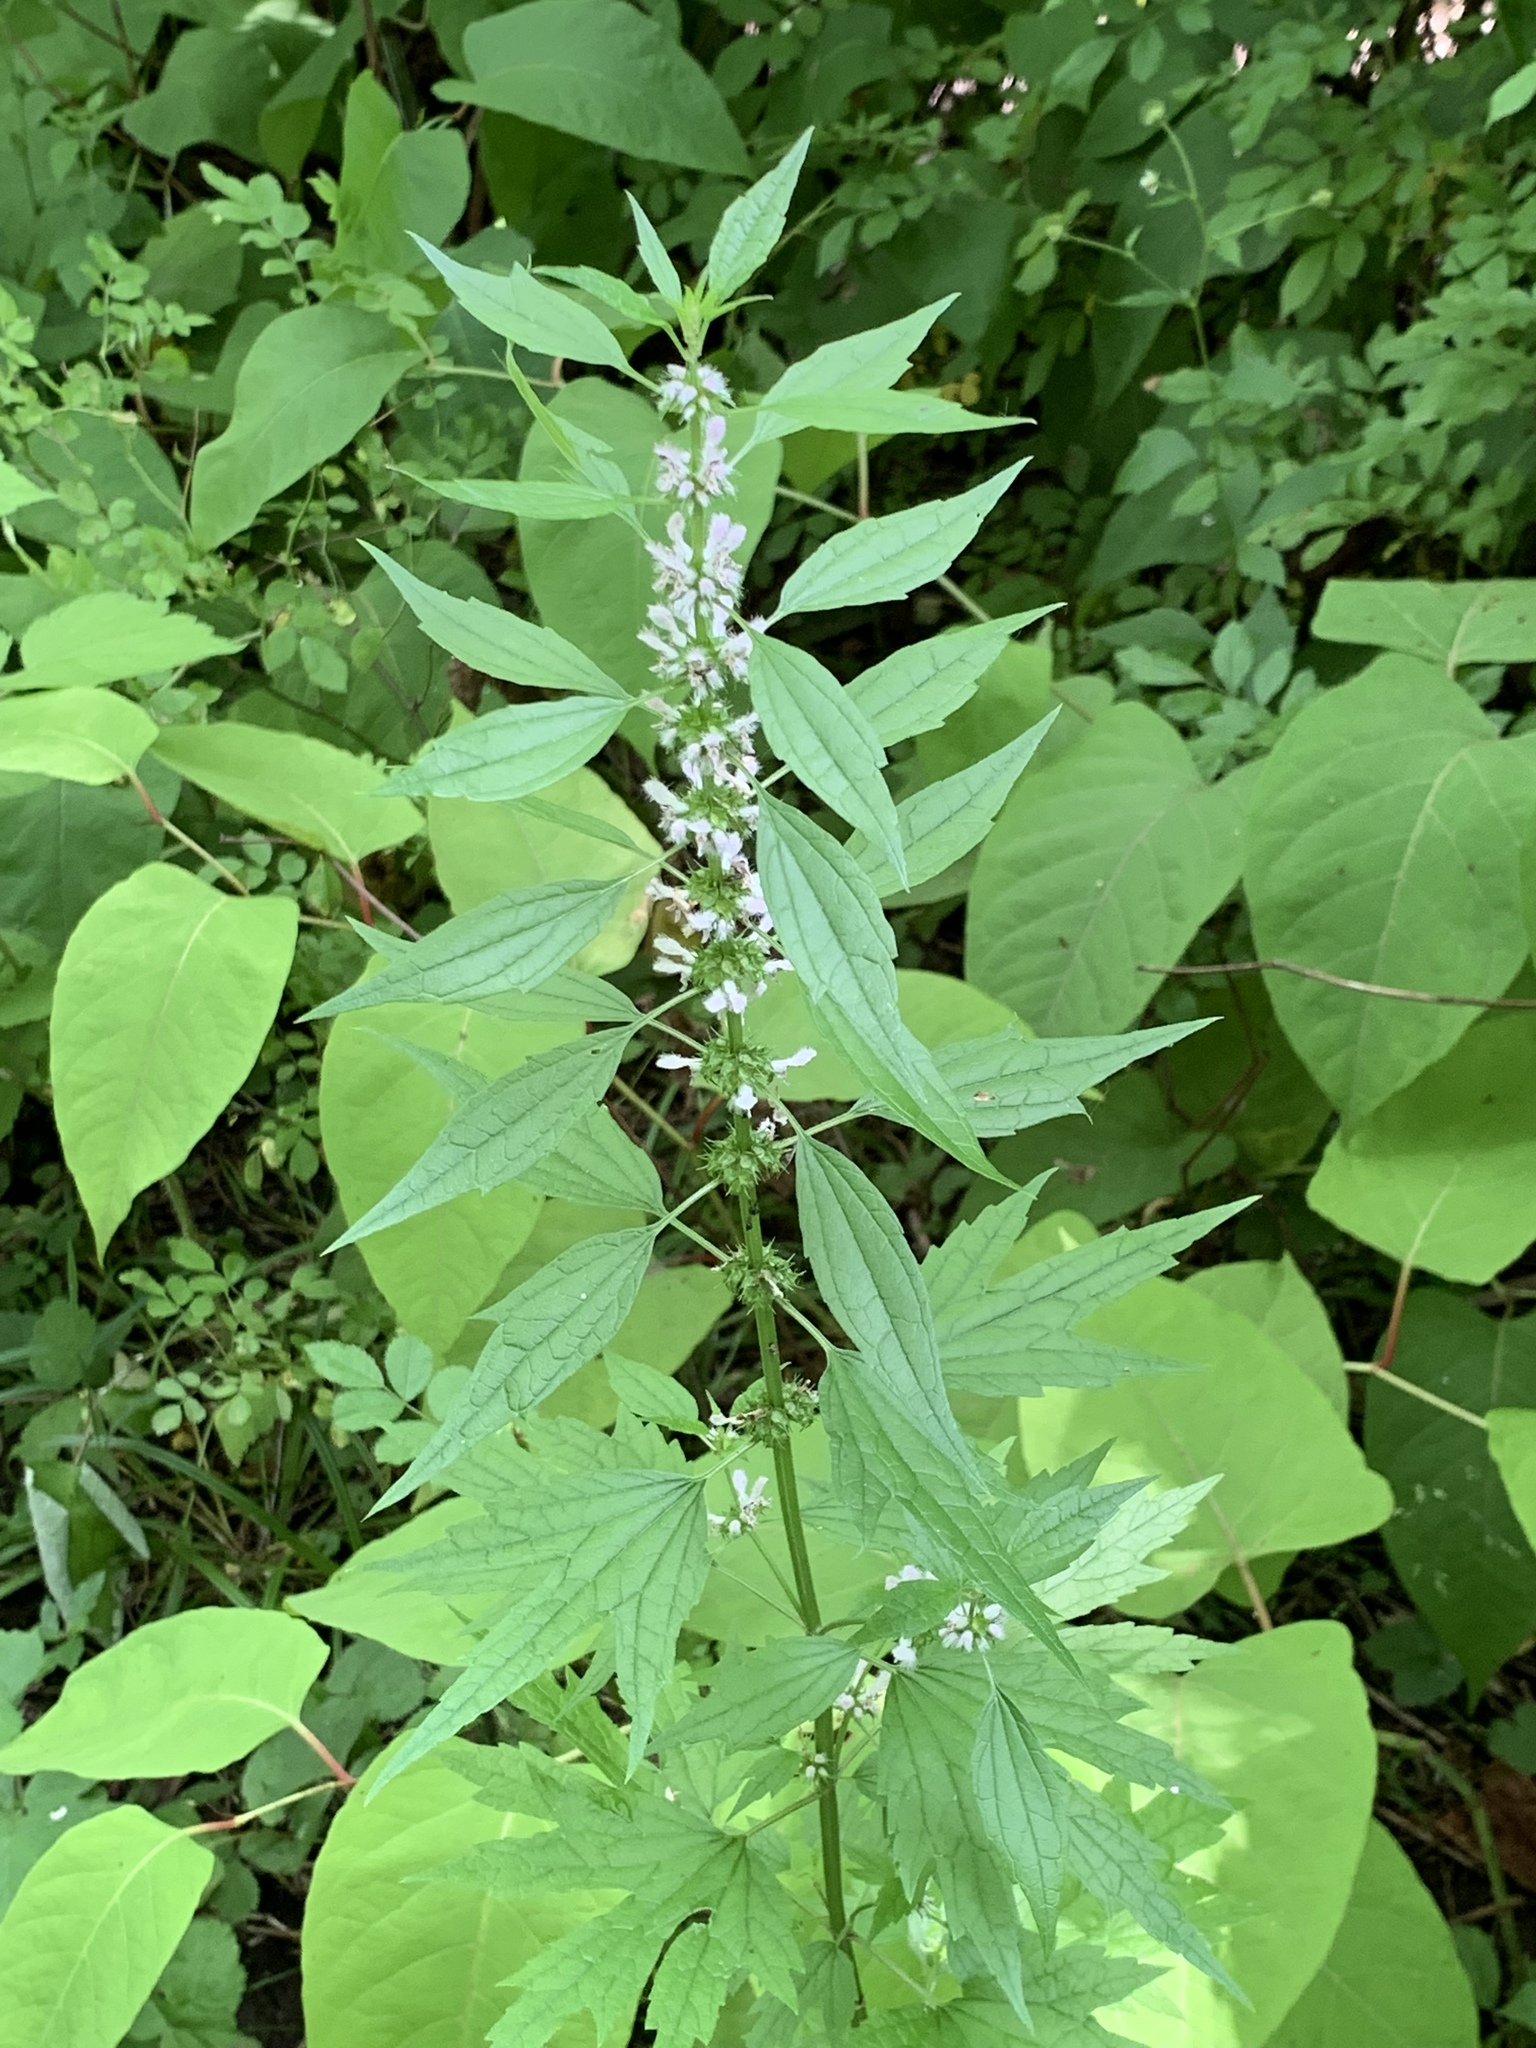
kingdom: Plantae
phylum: Tracheophyta
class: Magnoliopsida
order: Lamiales
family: Lamiaceae
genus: Leonurus
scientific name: Leonurus cardiaca
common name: Motherwort
